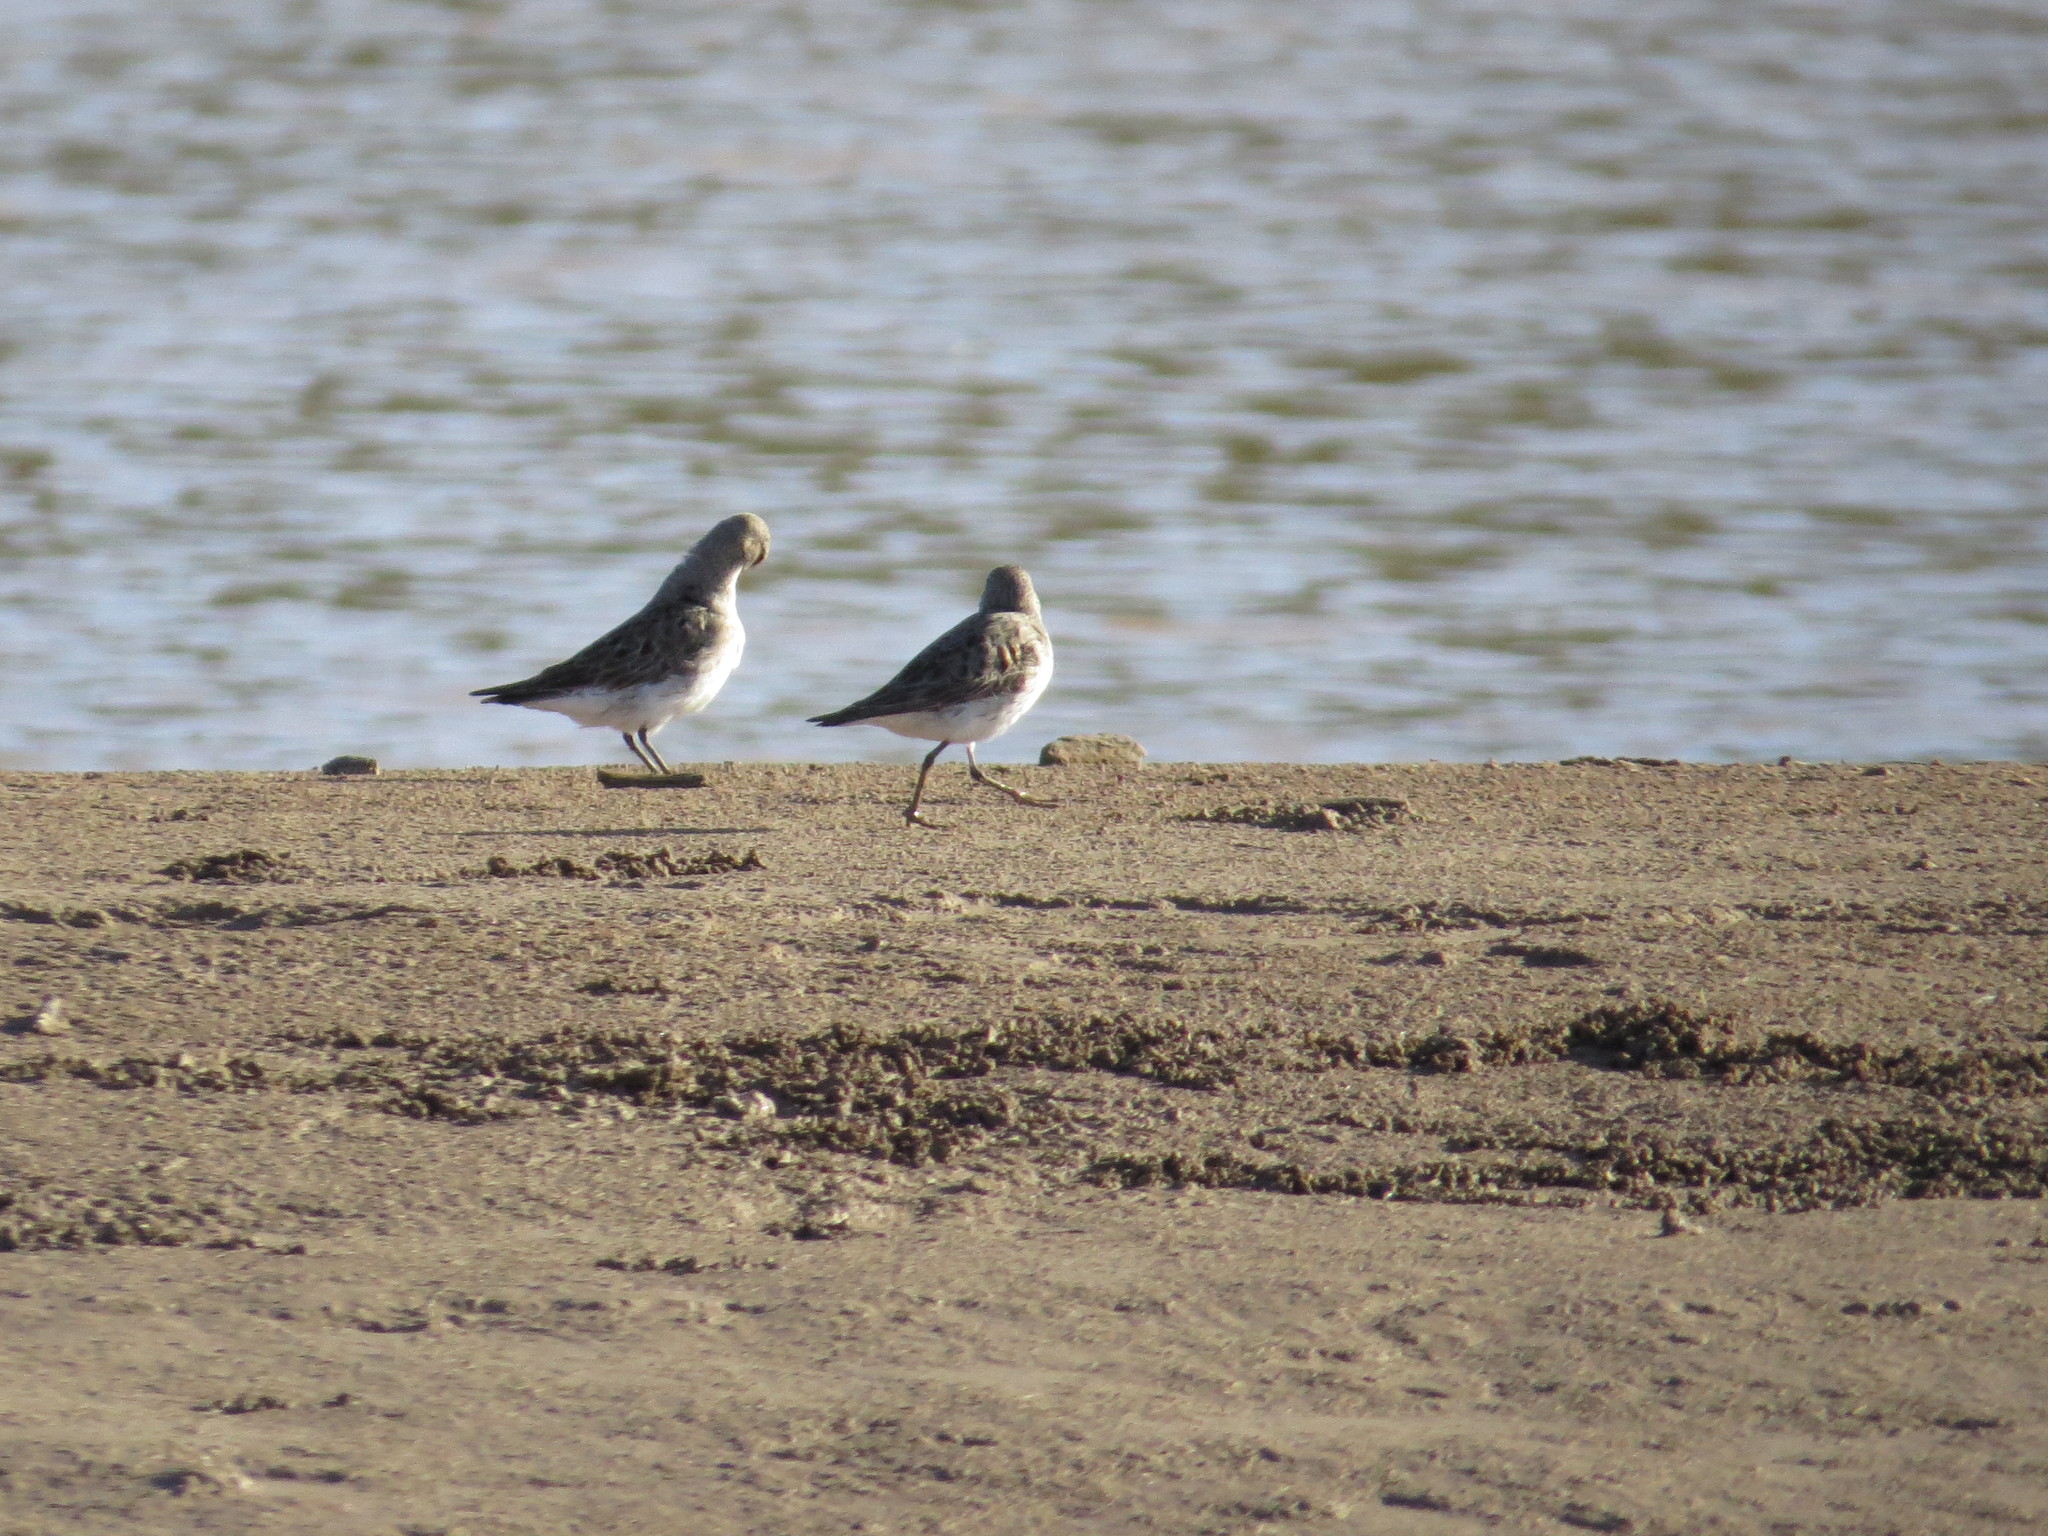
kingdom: Animalia
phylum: Chordata
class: Aves
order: Charadriiformes
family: Scolopacidae
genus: Calidris
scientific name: Calidris fuscicollis
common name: White-rumped sandpiper
